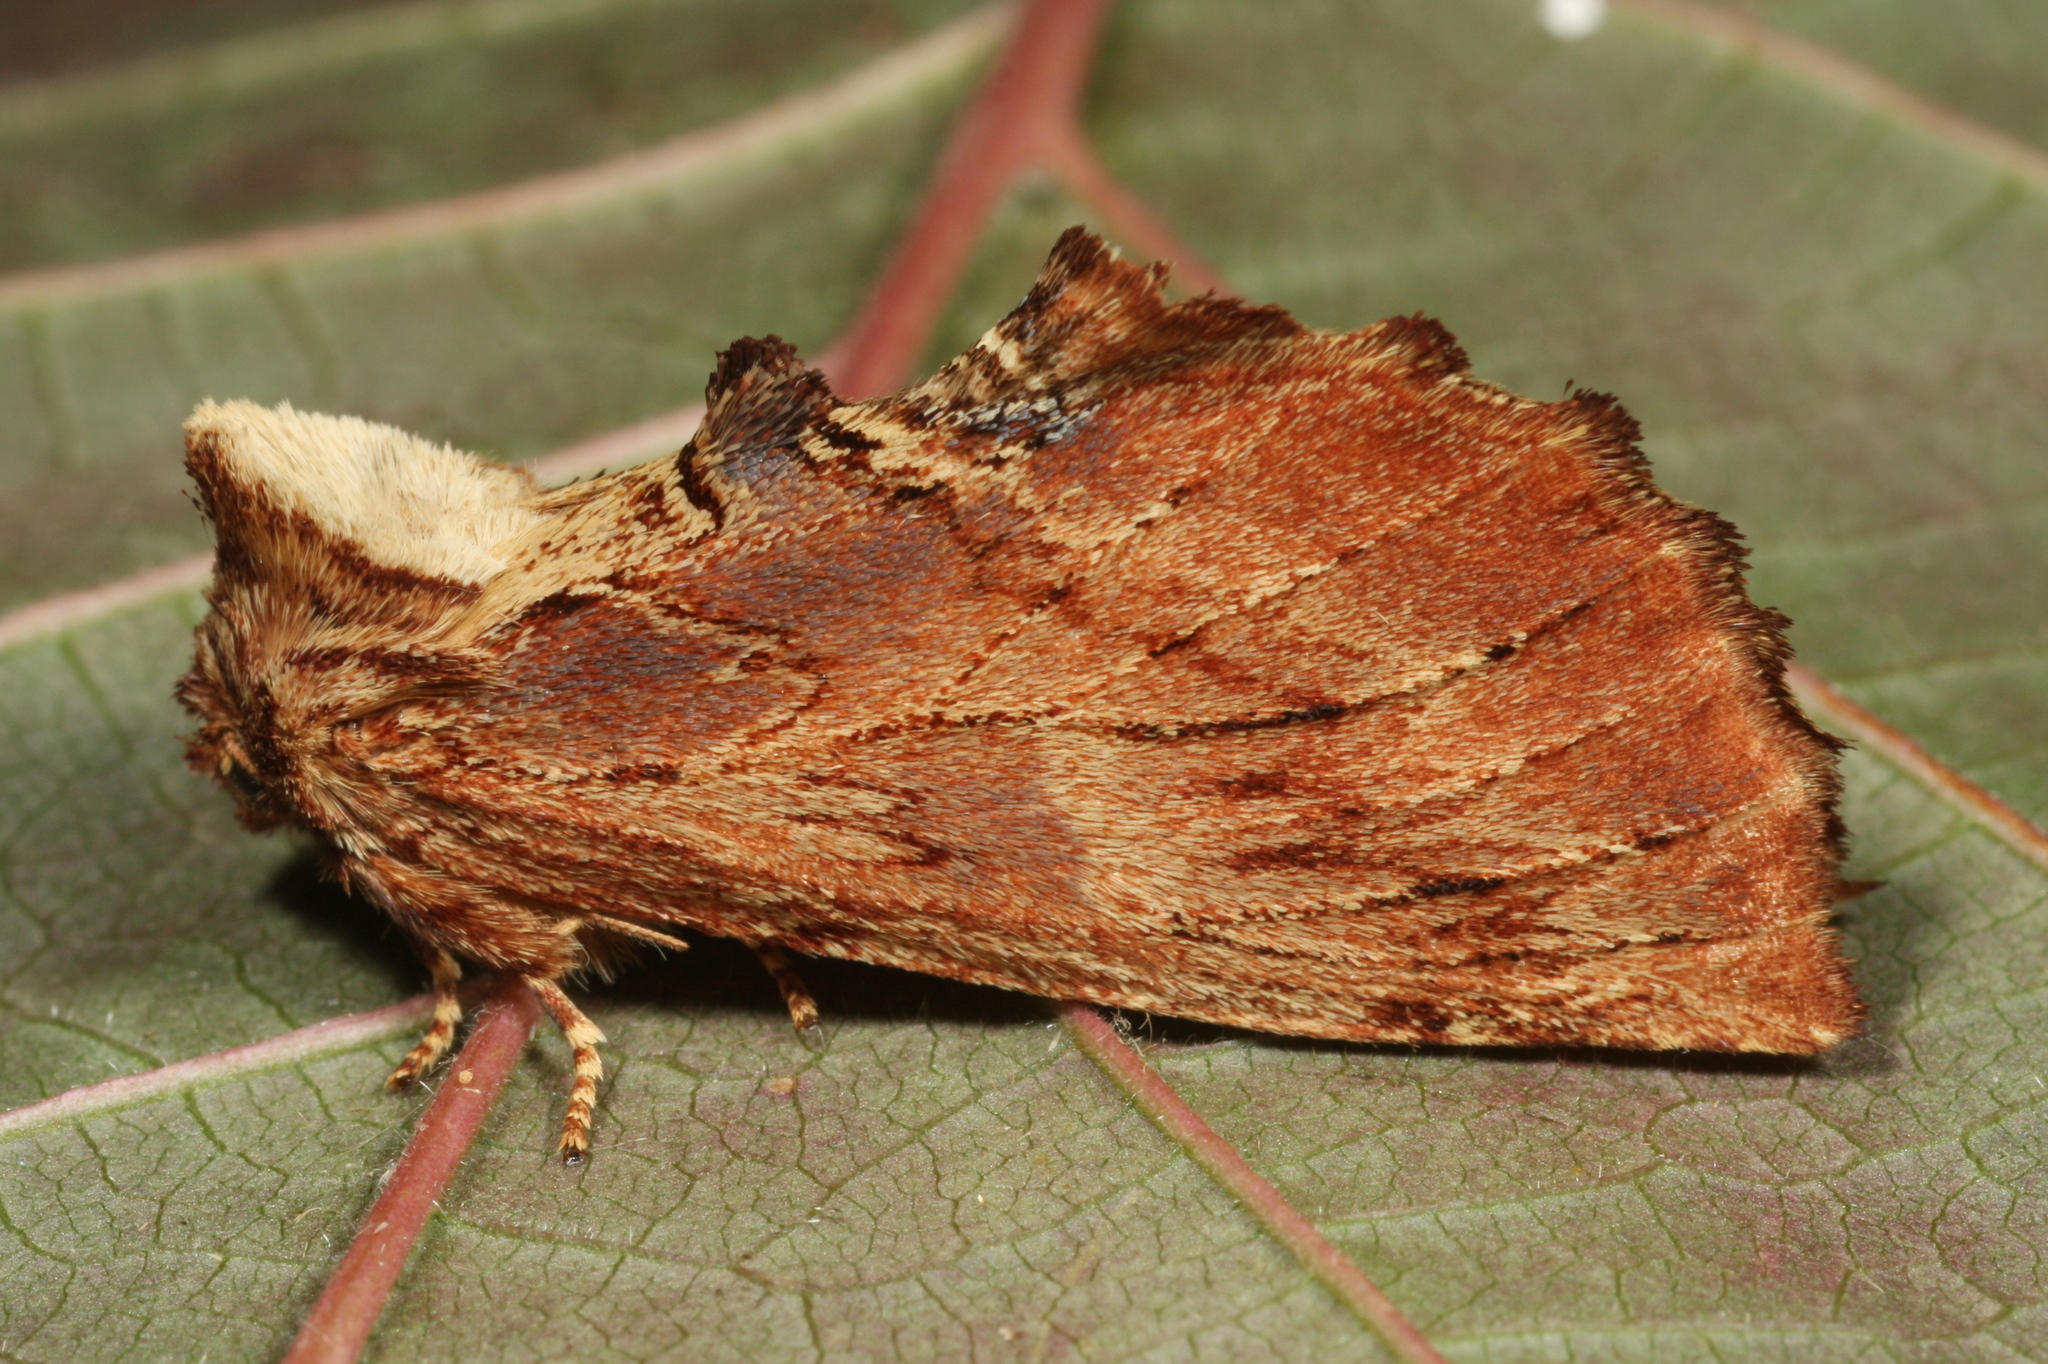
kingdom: Animalia
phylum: Arthropoda
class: Insecta
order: Lepidoptera
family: Notodontidae
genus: Ptilodon
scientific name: Ptilodon capucina
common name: Coxcomb prominent
